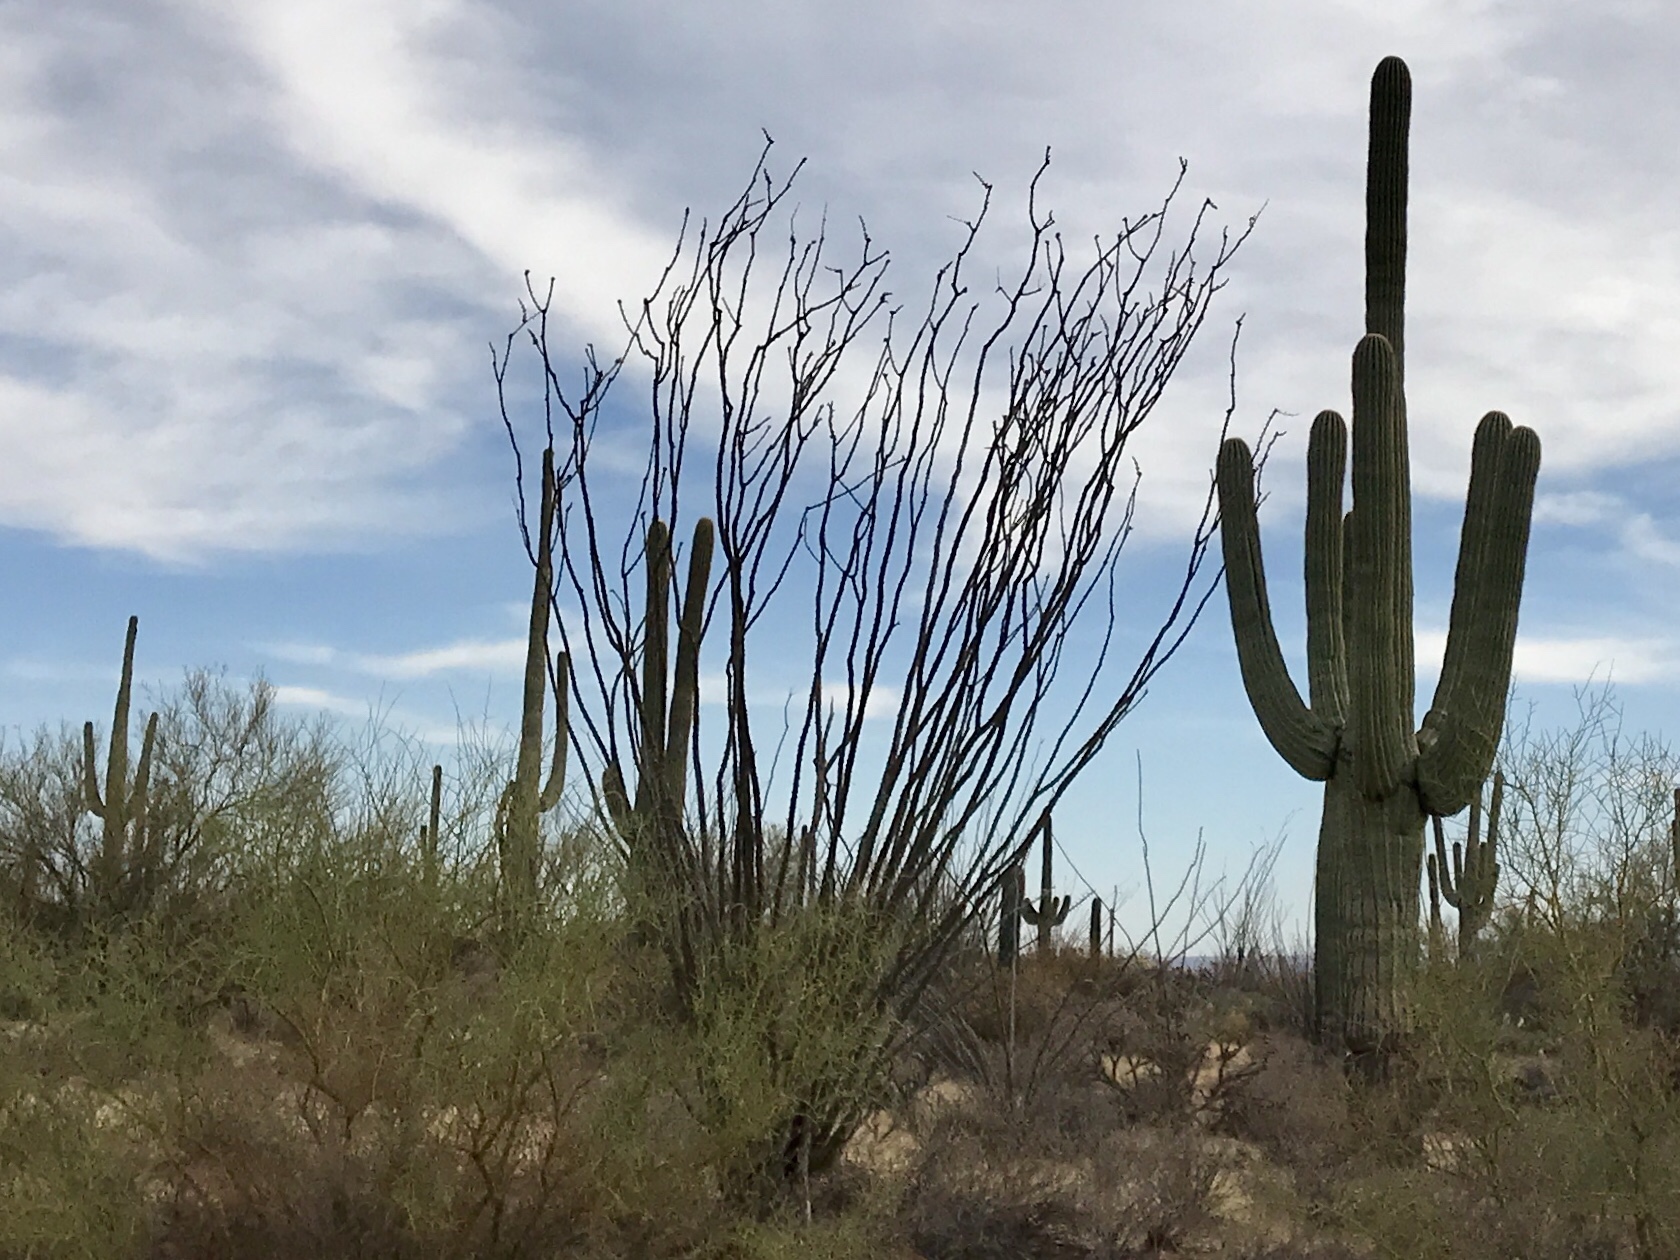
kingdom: Plantae
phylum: Tracheophyta
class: Magnoliopsida
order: Ericales
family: Fouquieriaceae
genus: Fouquieria
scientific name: Fouquieria splendens
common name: Vine-cactus
